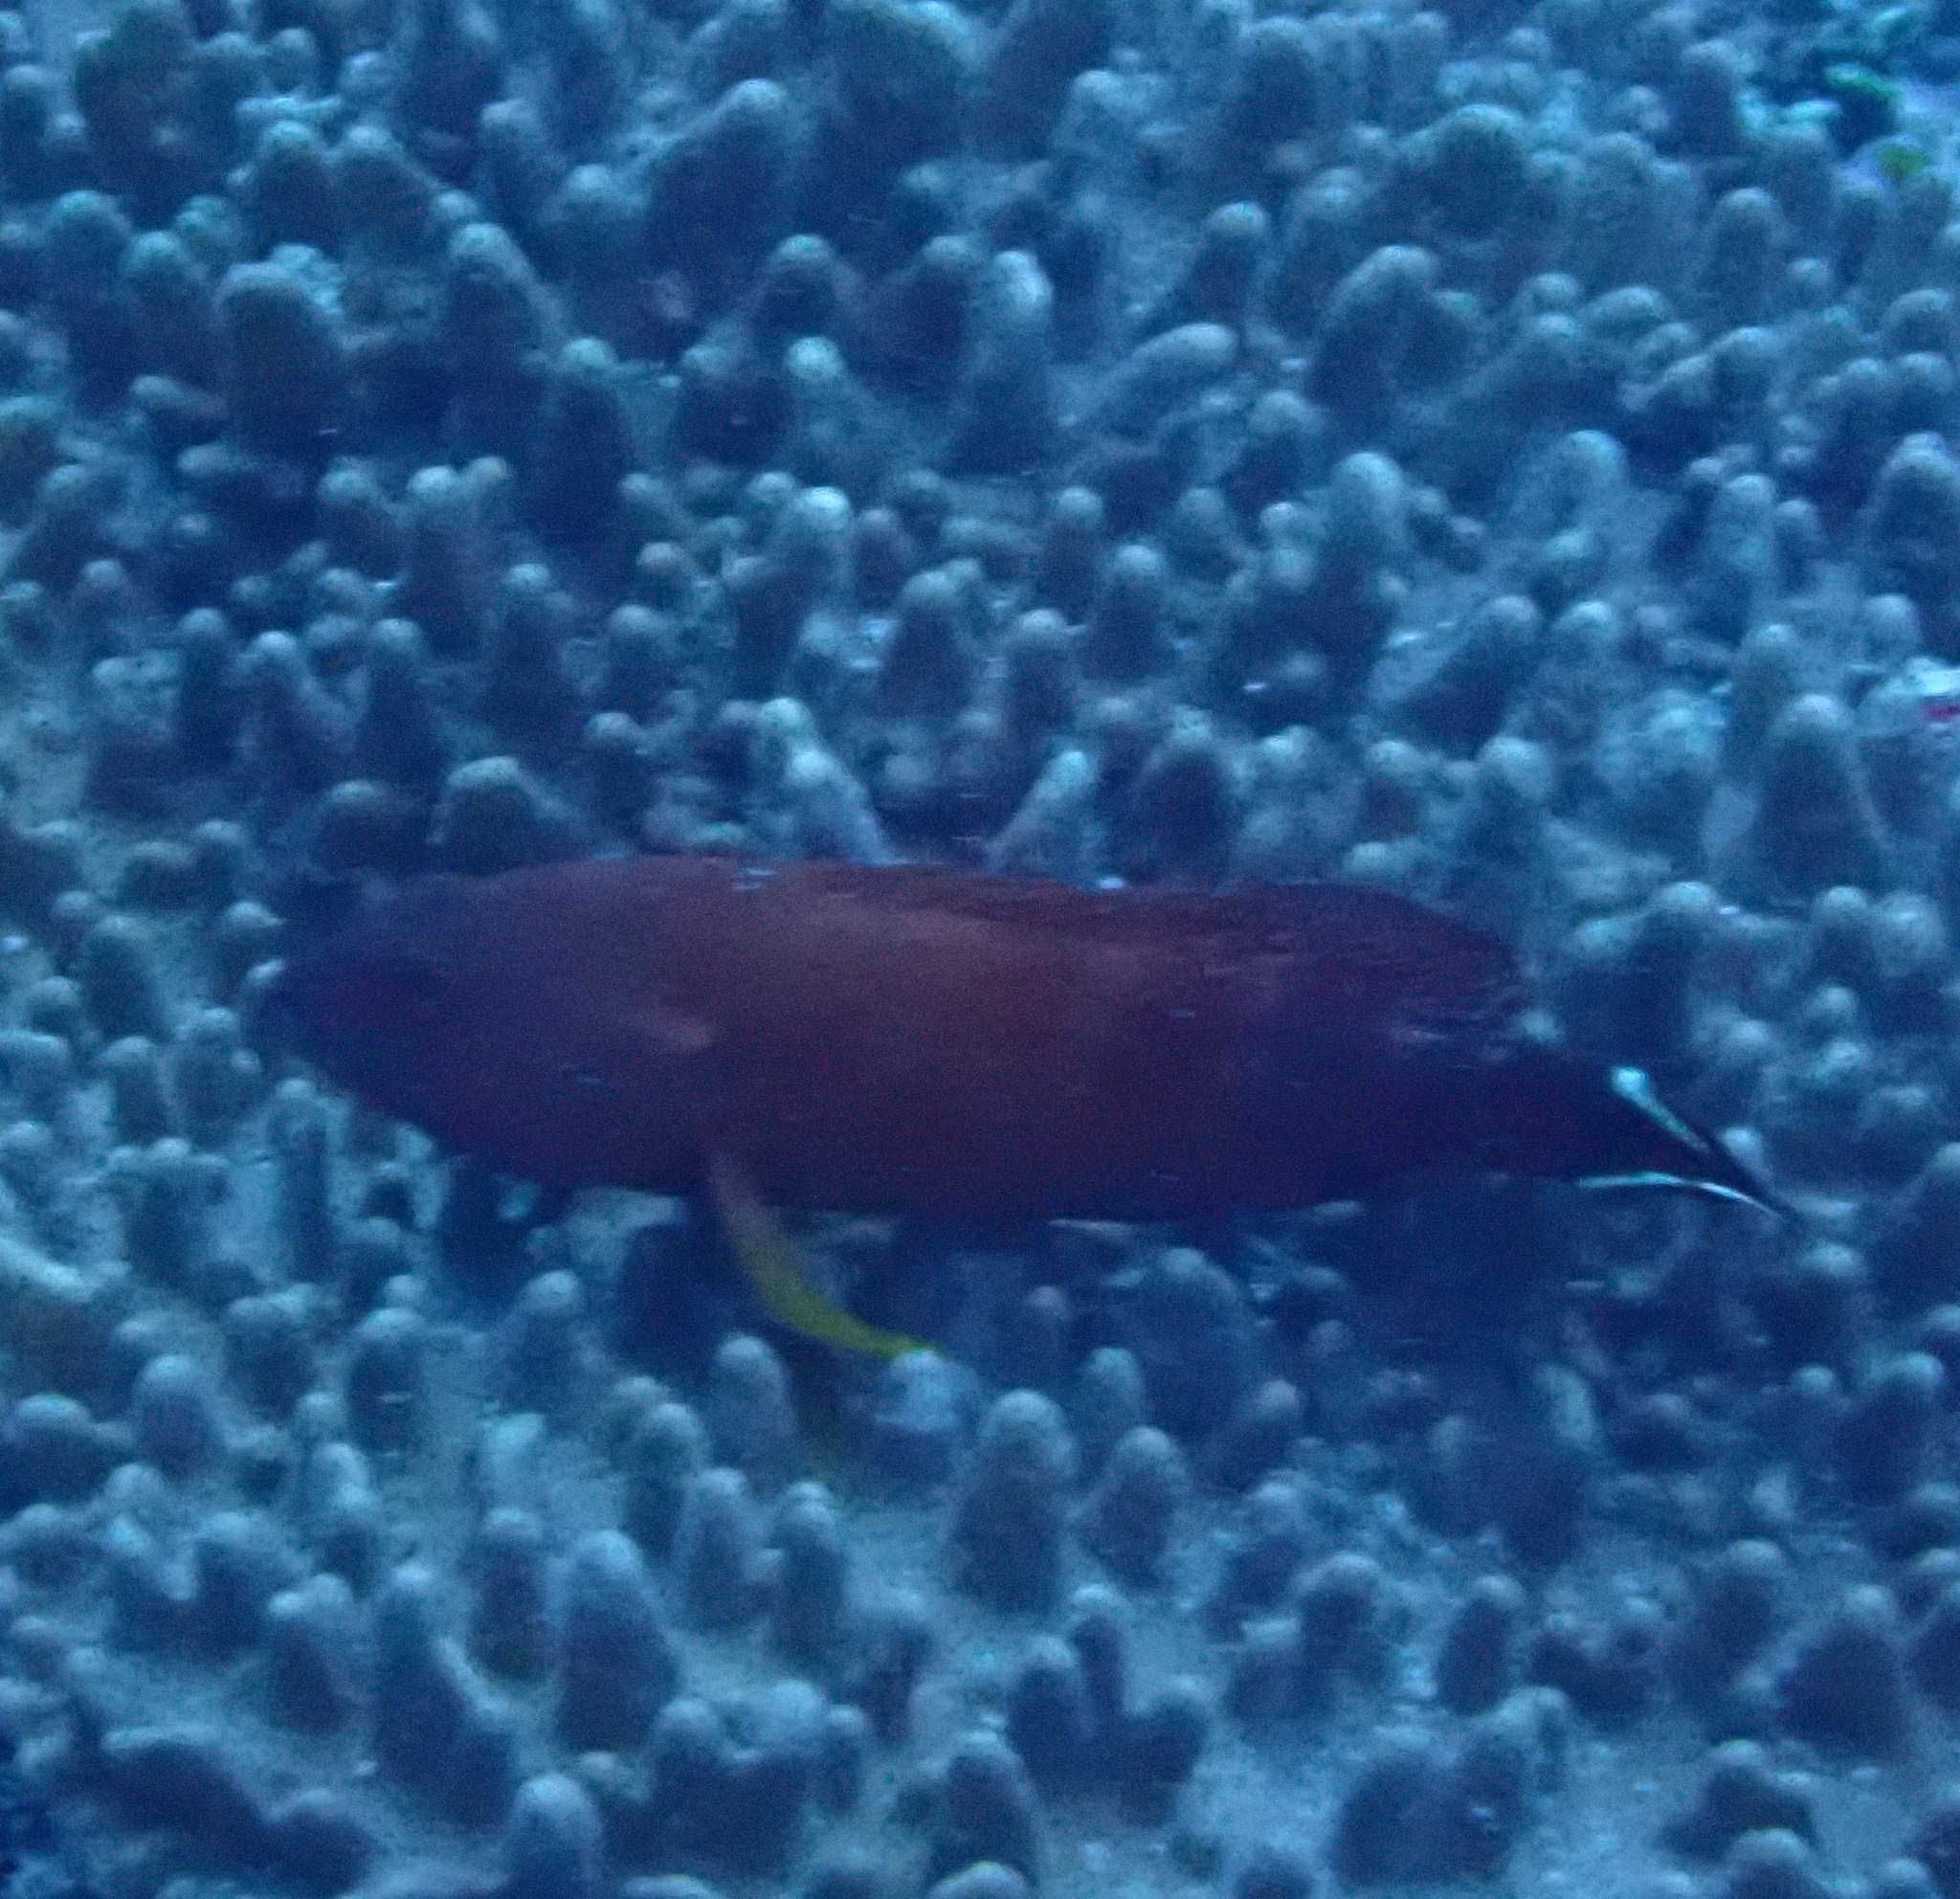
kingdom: Animalia
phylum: Chordata
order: Perciformes
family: Serranidae
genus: Cephalopholis
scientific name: Cephalopholis urodeta
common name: Darkfin hind
